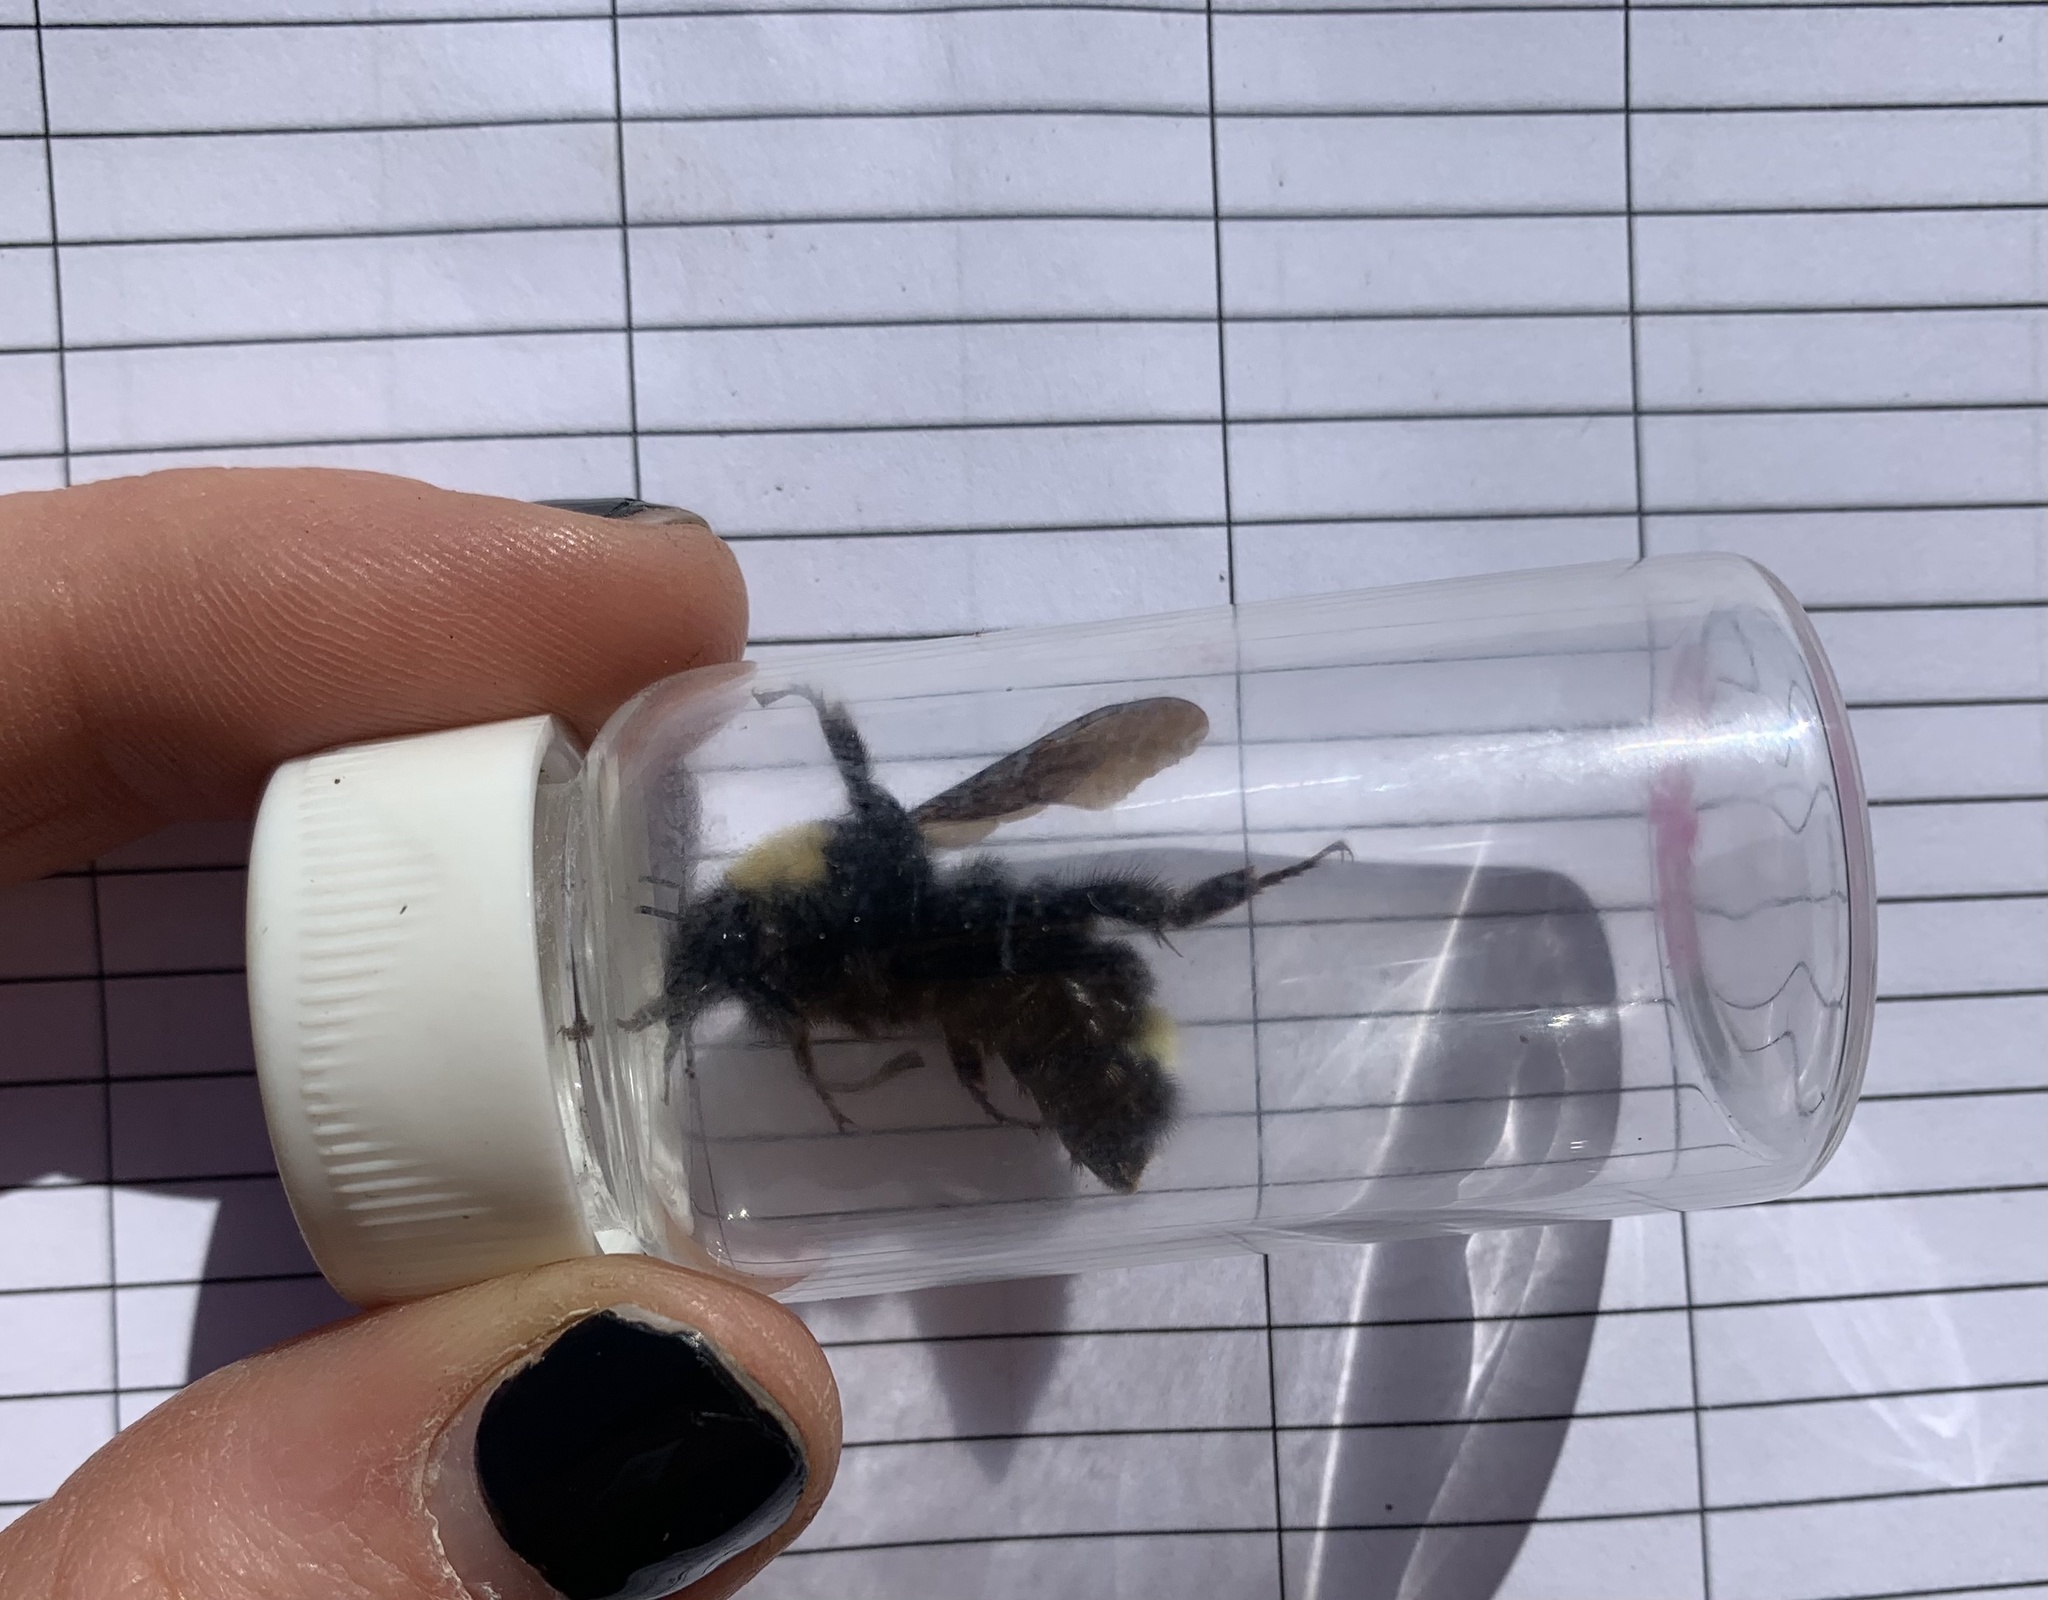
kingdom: Animalia
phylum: Arthropoda
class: Insecta
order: Hymenoptera
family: Apidae
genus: Bombus
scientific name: Bombus californicus
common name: California bumble bee
